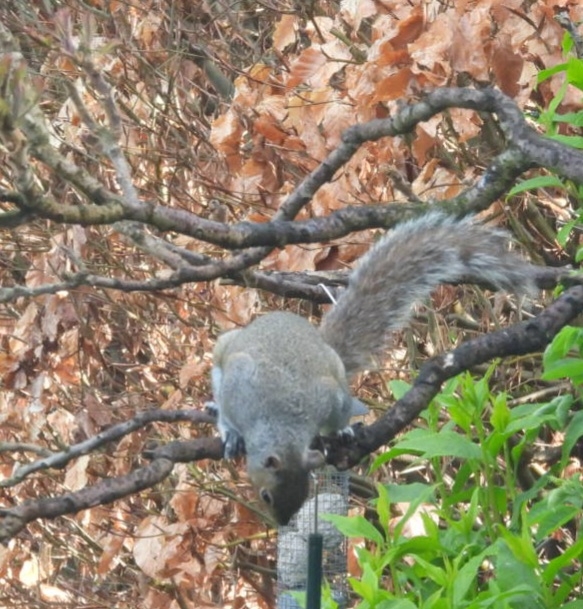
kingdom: Animalia
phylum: Chordata
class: Mammalia
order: Rodentia
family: Sciuridae
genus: Sciurus
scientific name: Sciurus carolinensis
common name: Eastern gray squirrel
